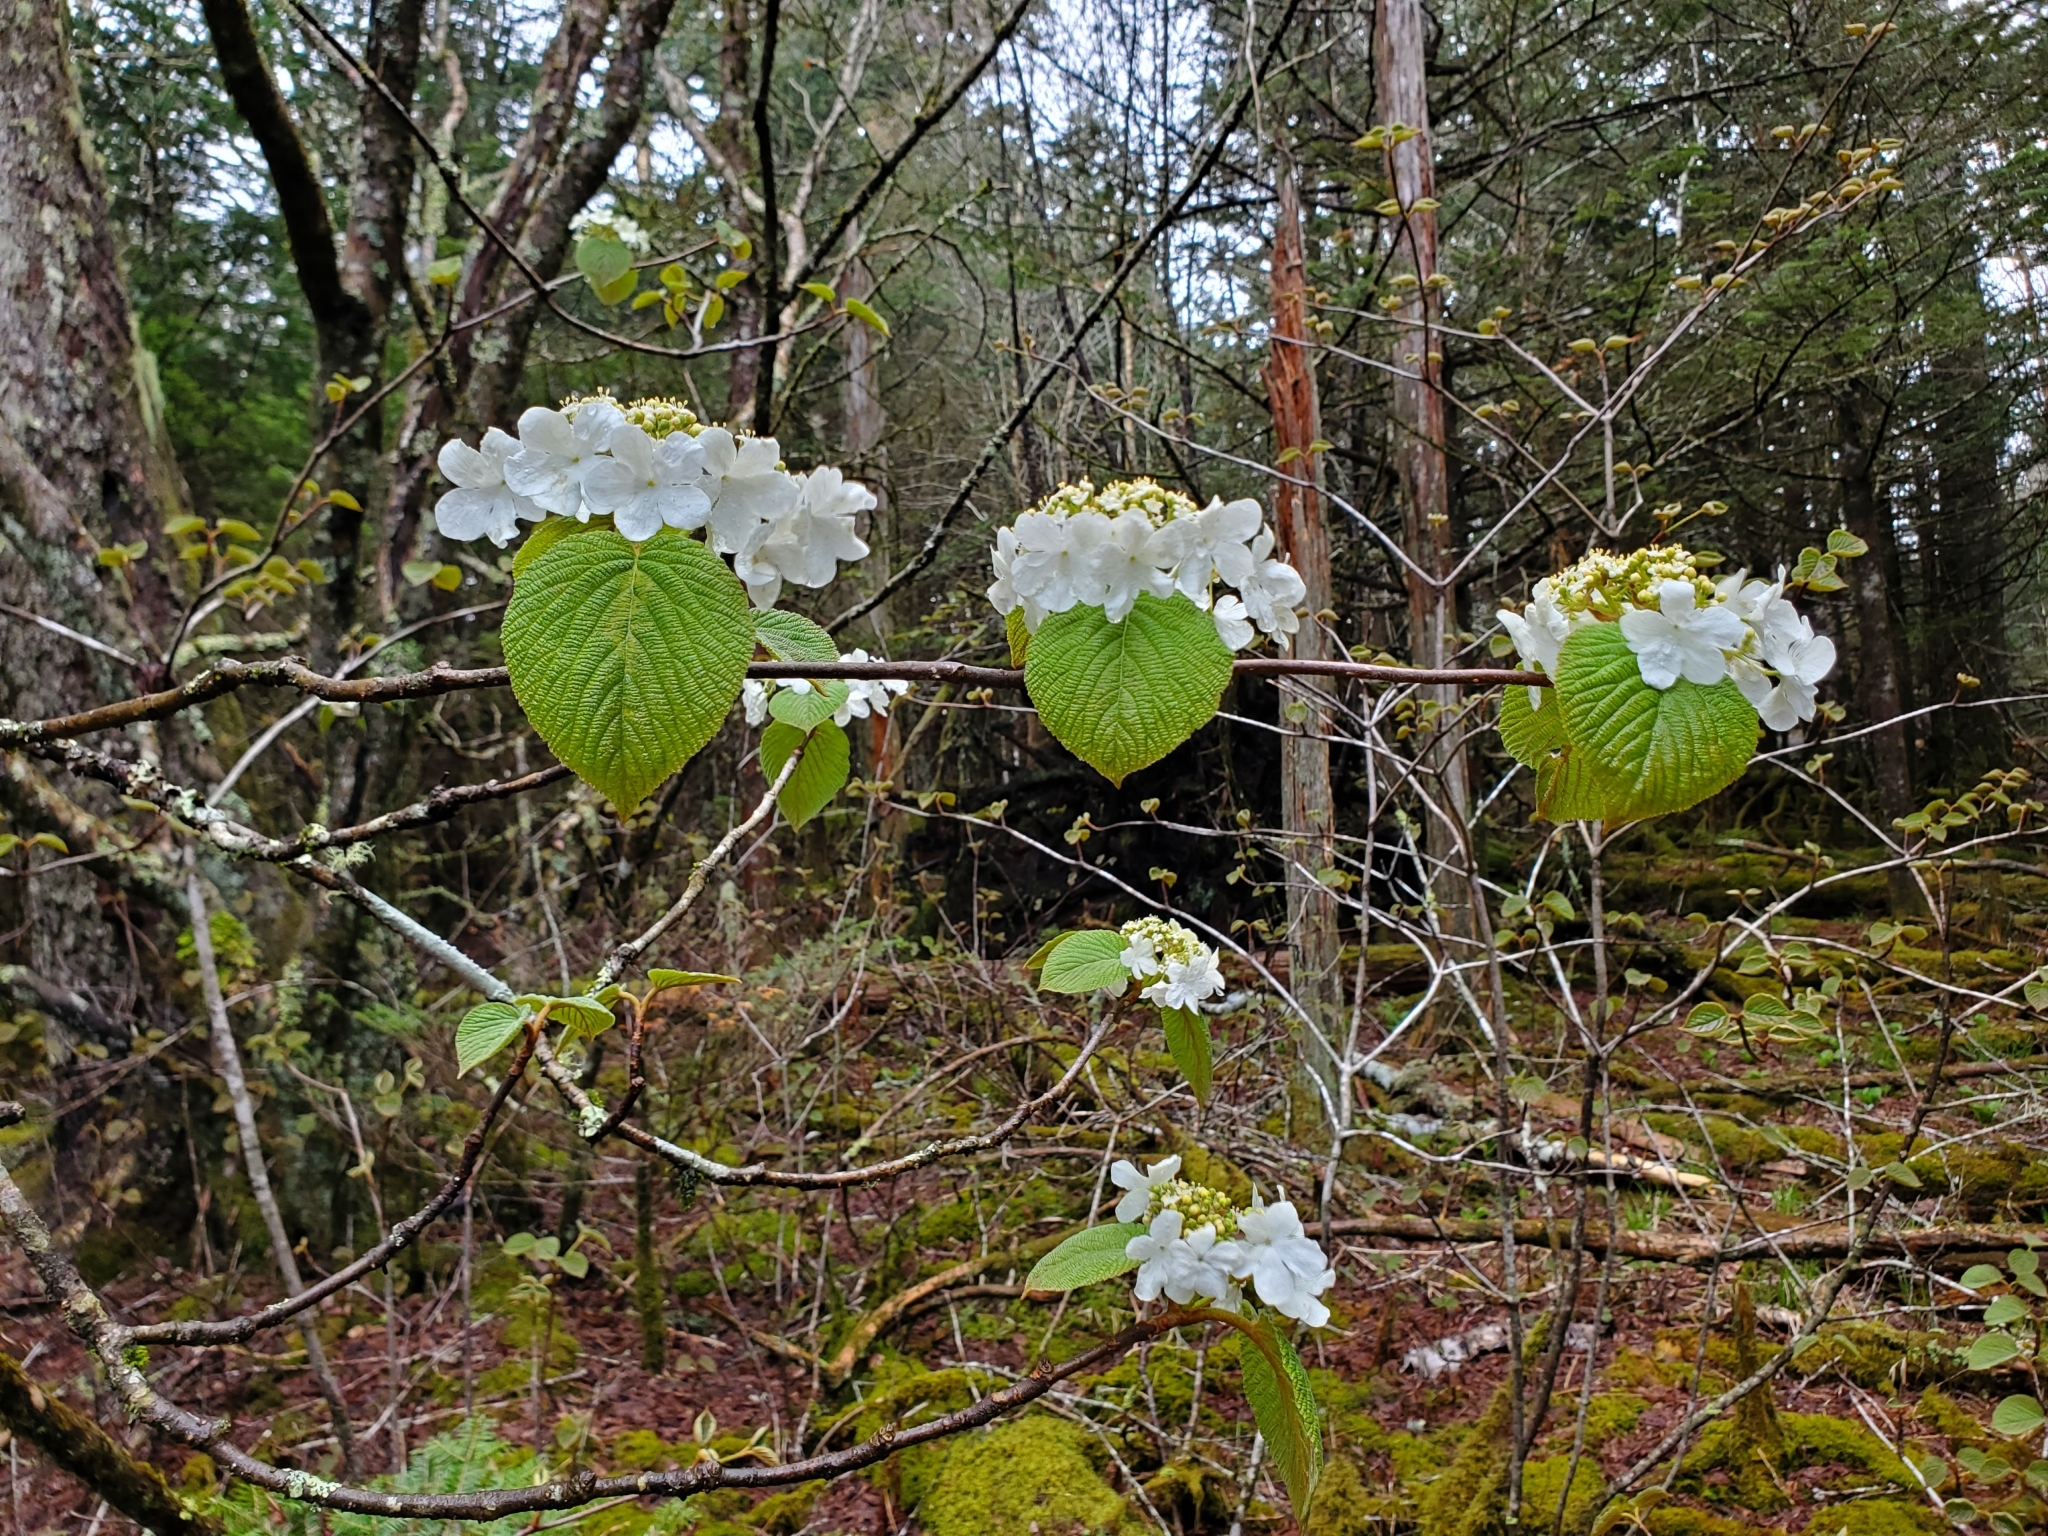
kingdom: Plantae
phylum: Tracheophyta
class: Magnoliopsida
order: Dipsacales
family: Viburnaceae
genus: Viburnum
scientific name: Viburnum lantanoides
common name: Hobblebush
